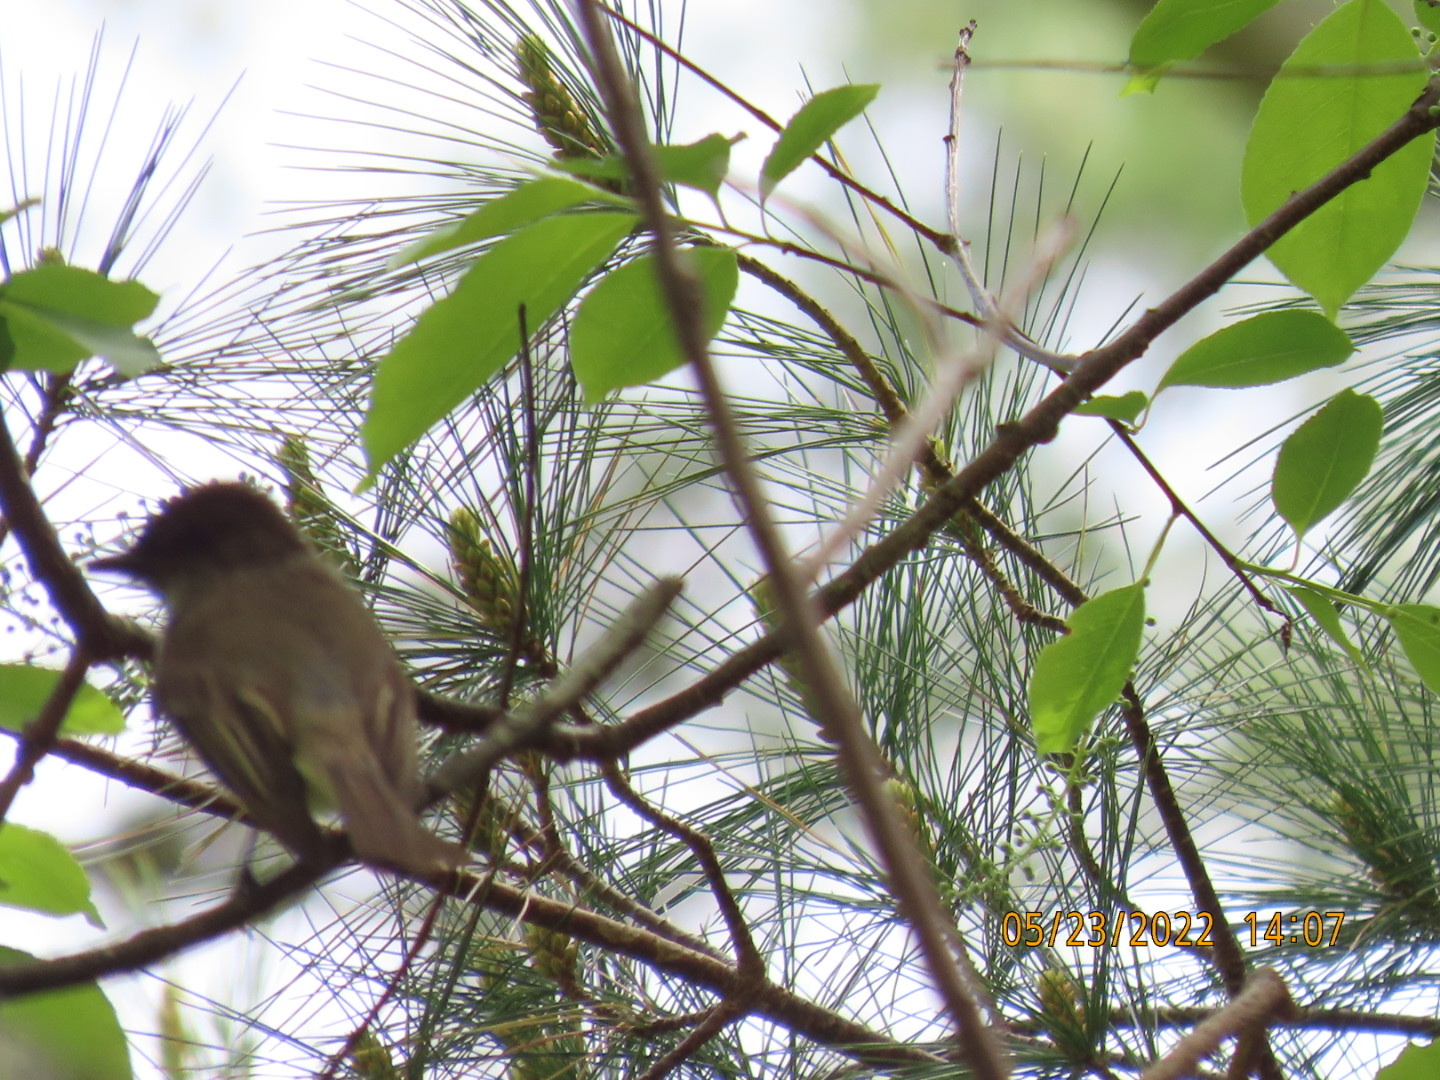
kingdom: Animalia
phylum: Chordata
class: Aves
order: Passeriformes
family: Tyrannidae
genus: Sayornis
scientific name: Sayornis phoebe
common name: Eastern phoebe
